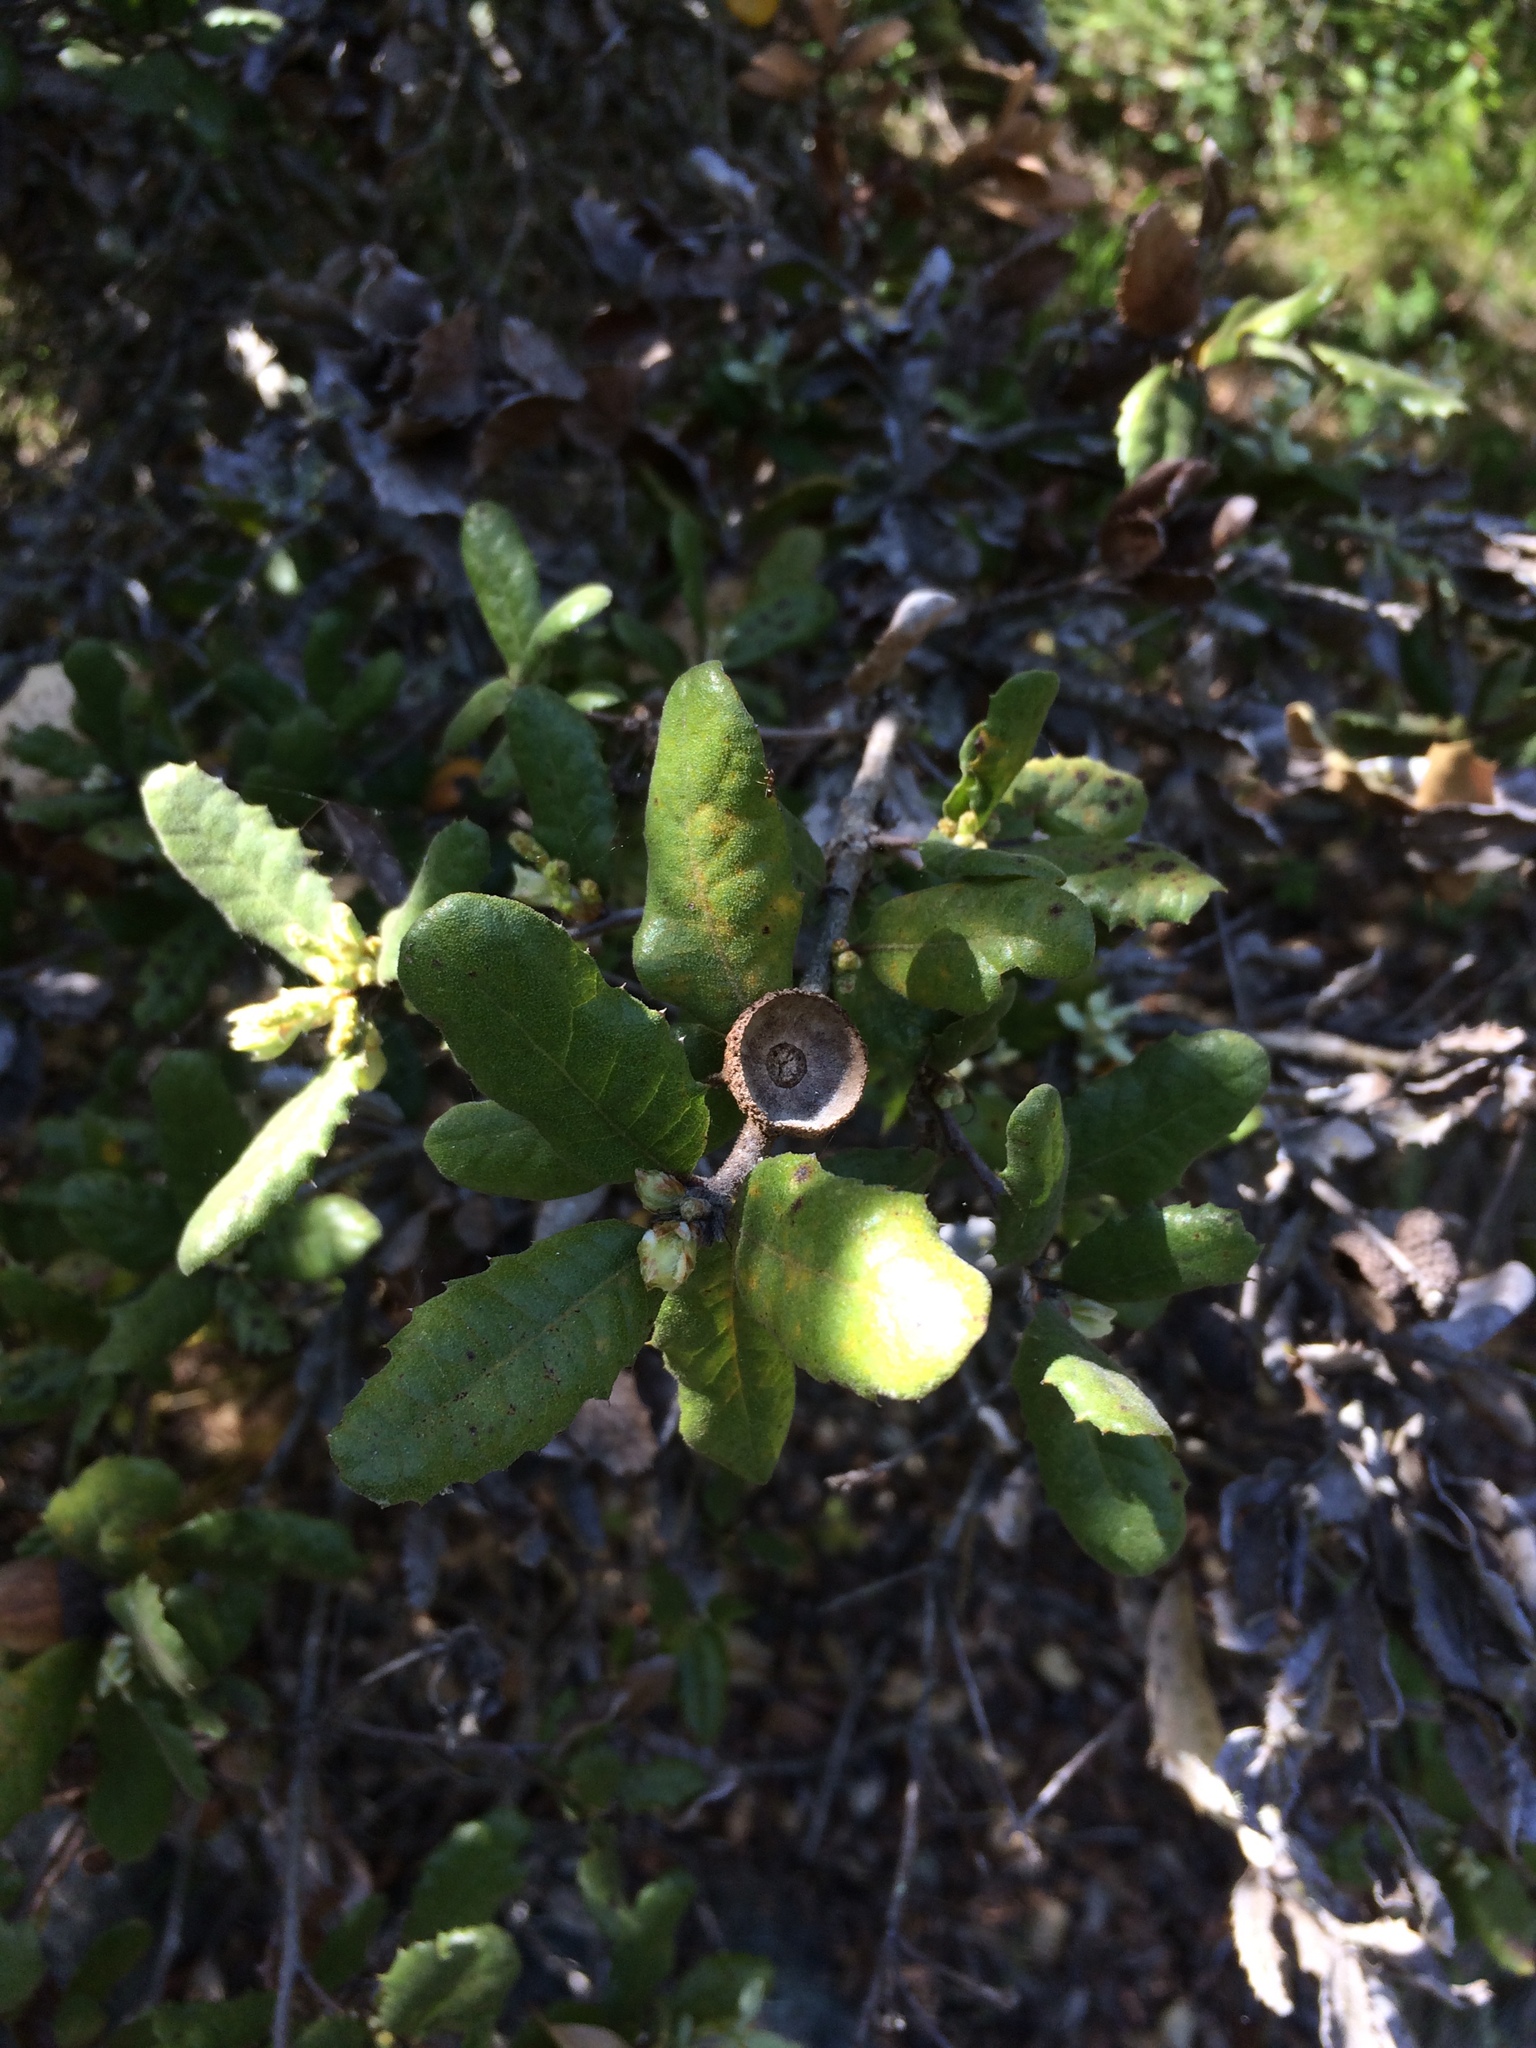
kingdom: Plantae
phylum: Tracheophyta
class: Magnoliopsida
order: Fagales
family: Fagaceae
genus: Quercus
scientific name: Quercus durata
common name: Leather oak
